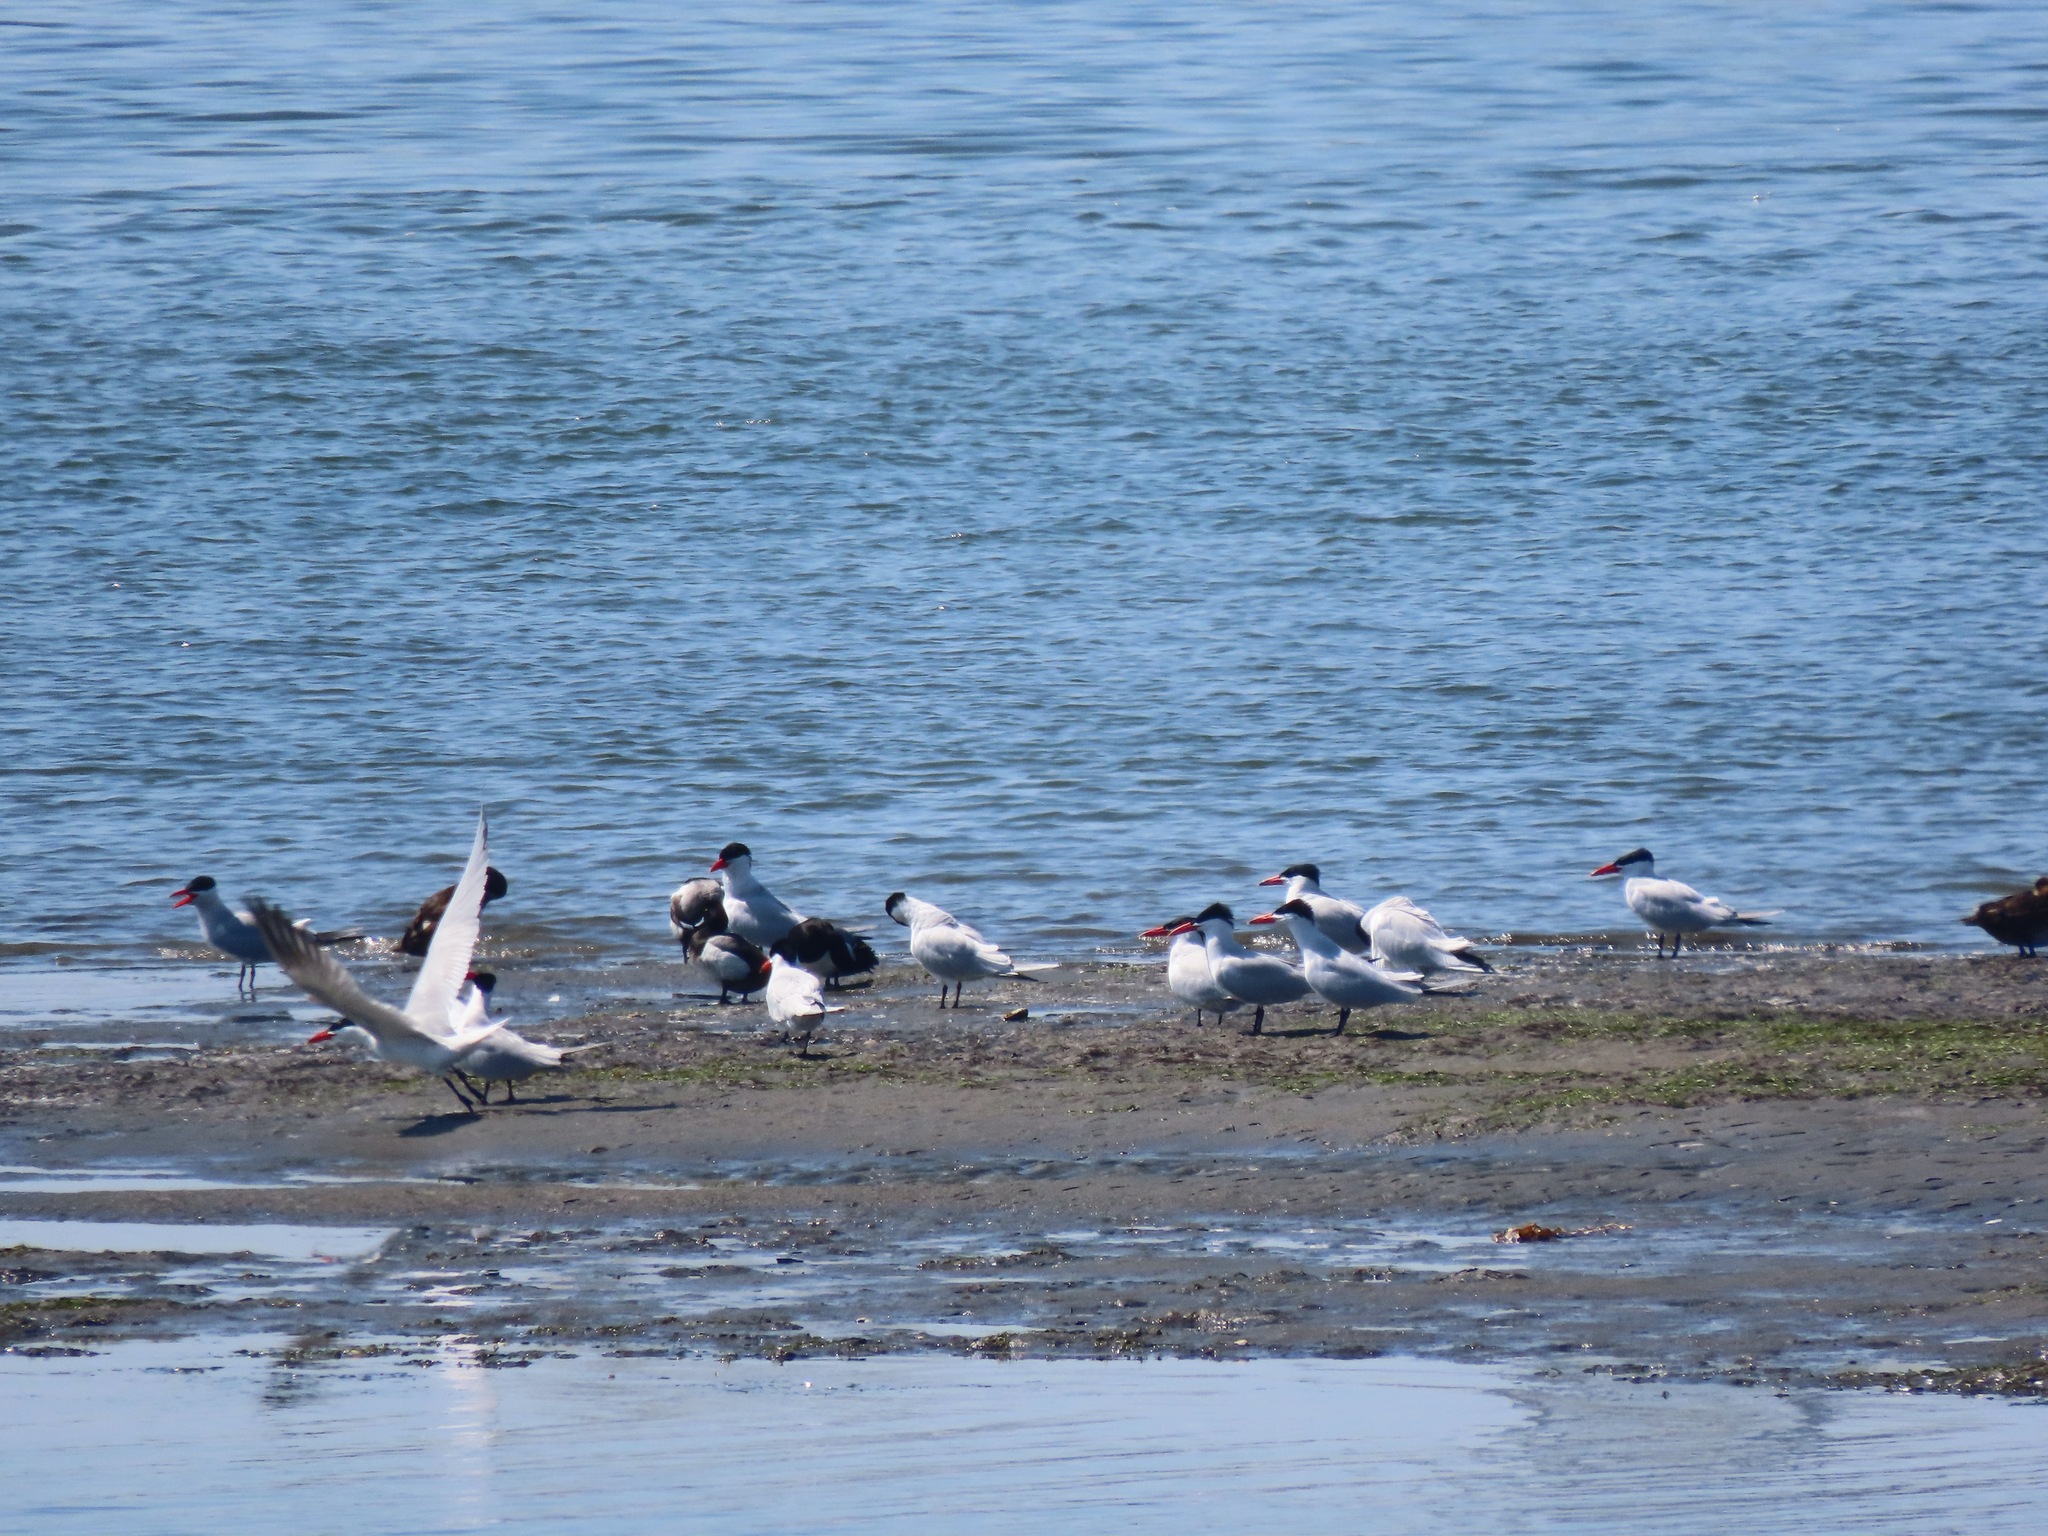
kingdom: Animalia
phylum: Chordata
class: Aves
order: Charadriiformes
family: Laridae
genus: Hydroprogne
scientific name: Hydroprogne caspia
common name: Caspian tern
